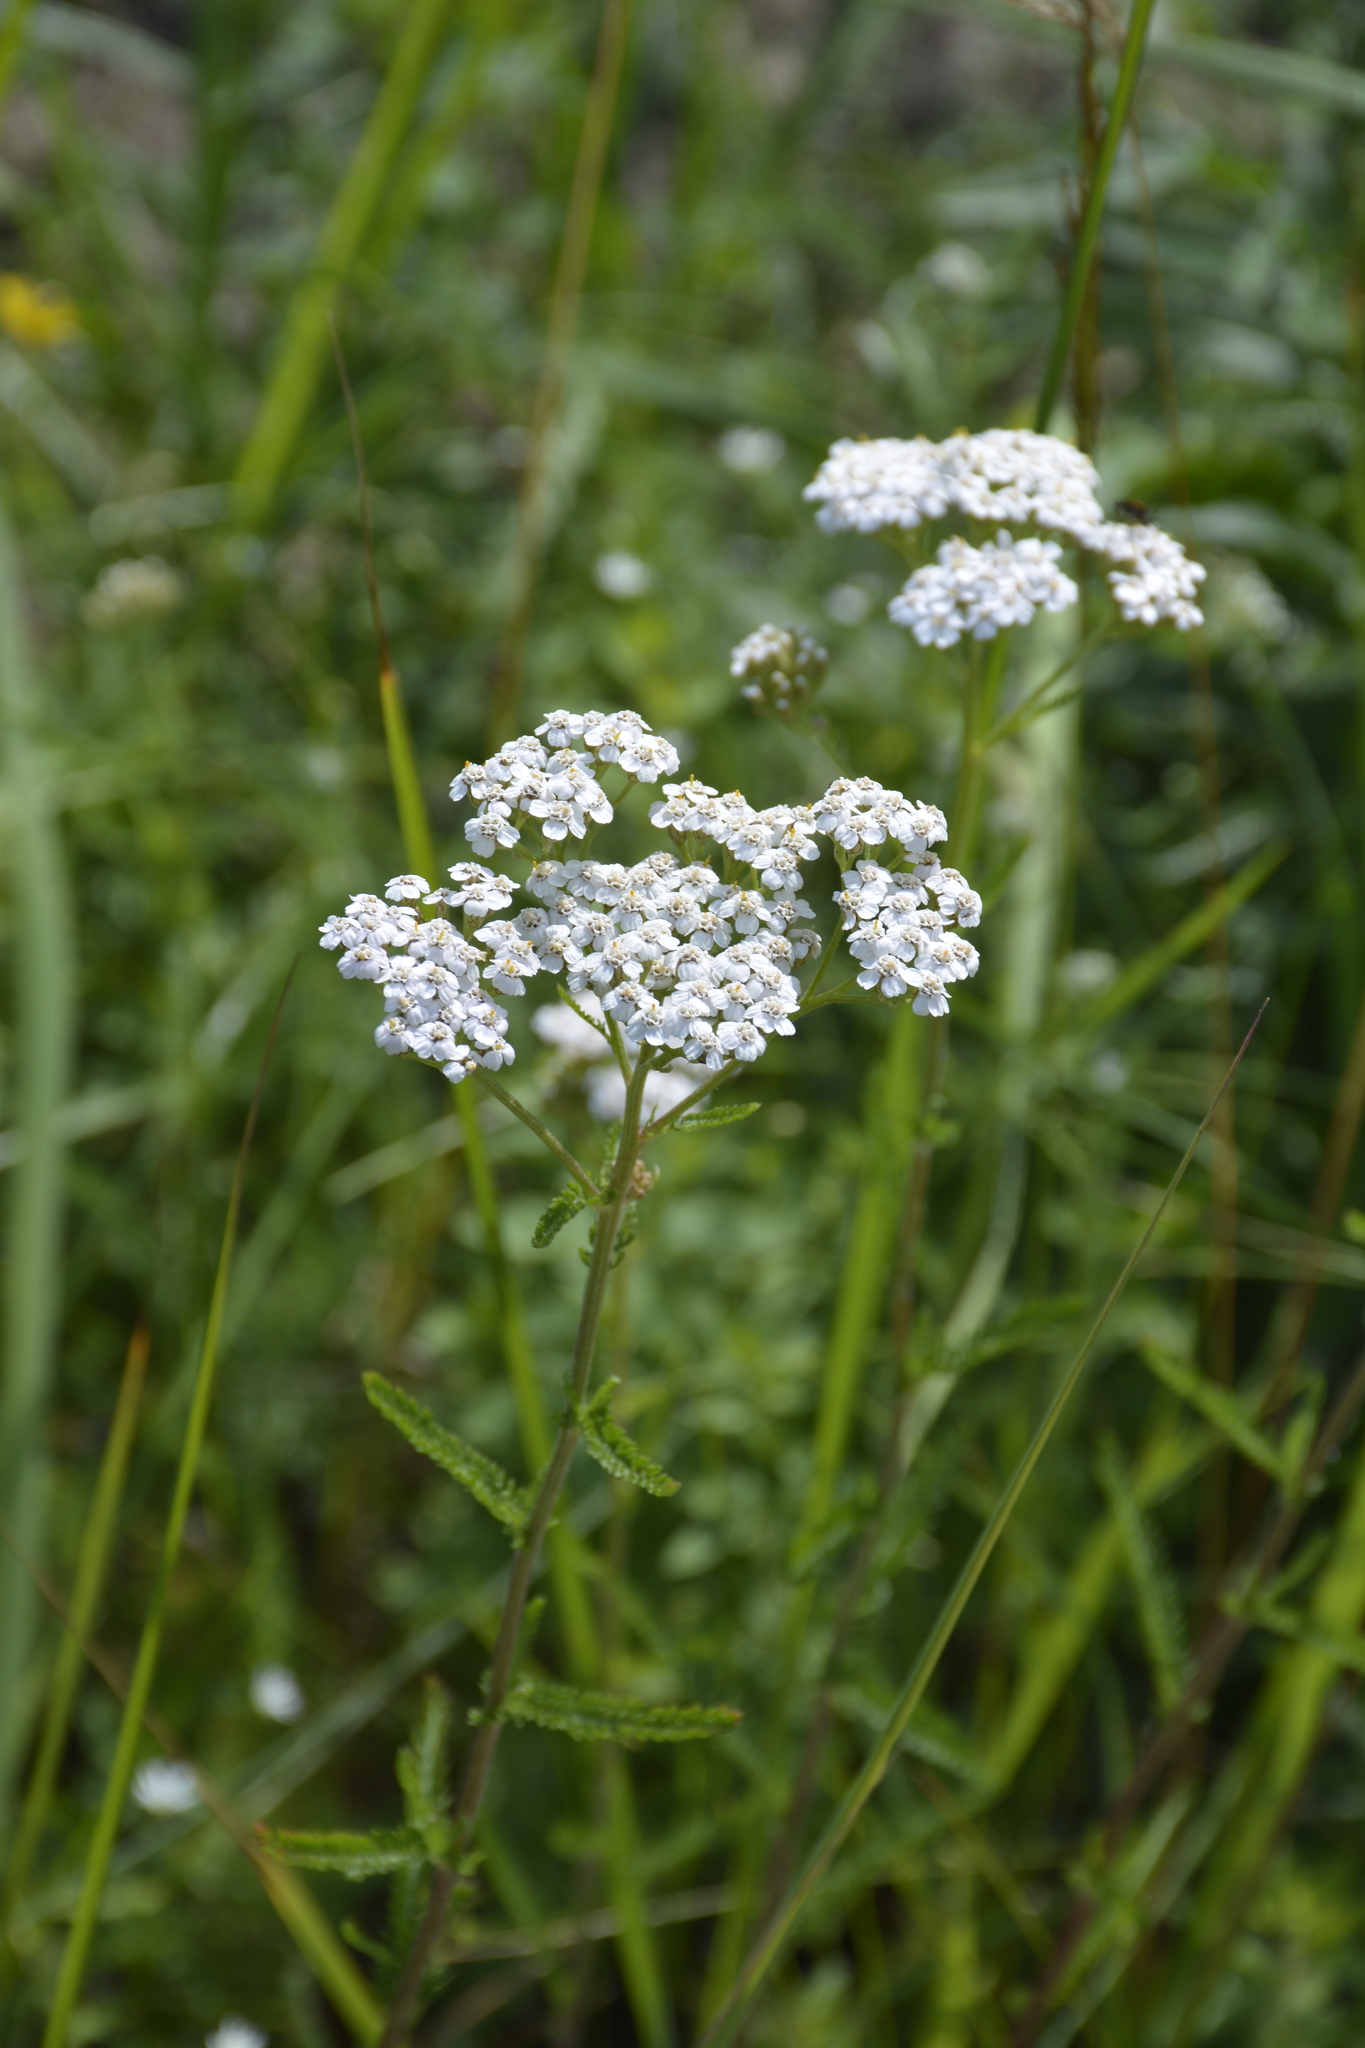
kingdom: Plantae
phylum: Tracheophyta
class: Magnoliopsida
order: Asterales
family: Asteraceae
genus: Achillea
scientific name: Achillea millefolium
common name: Yarrow
